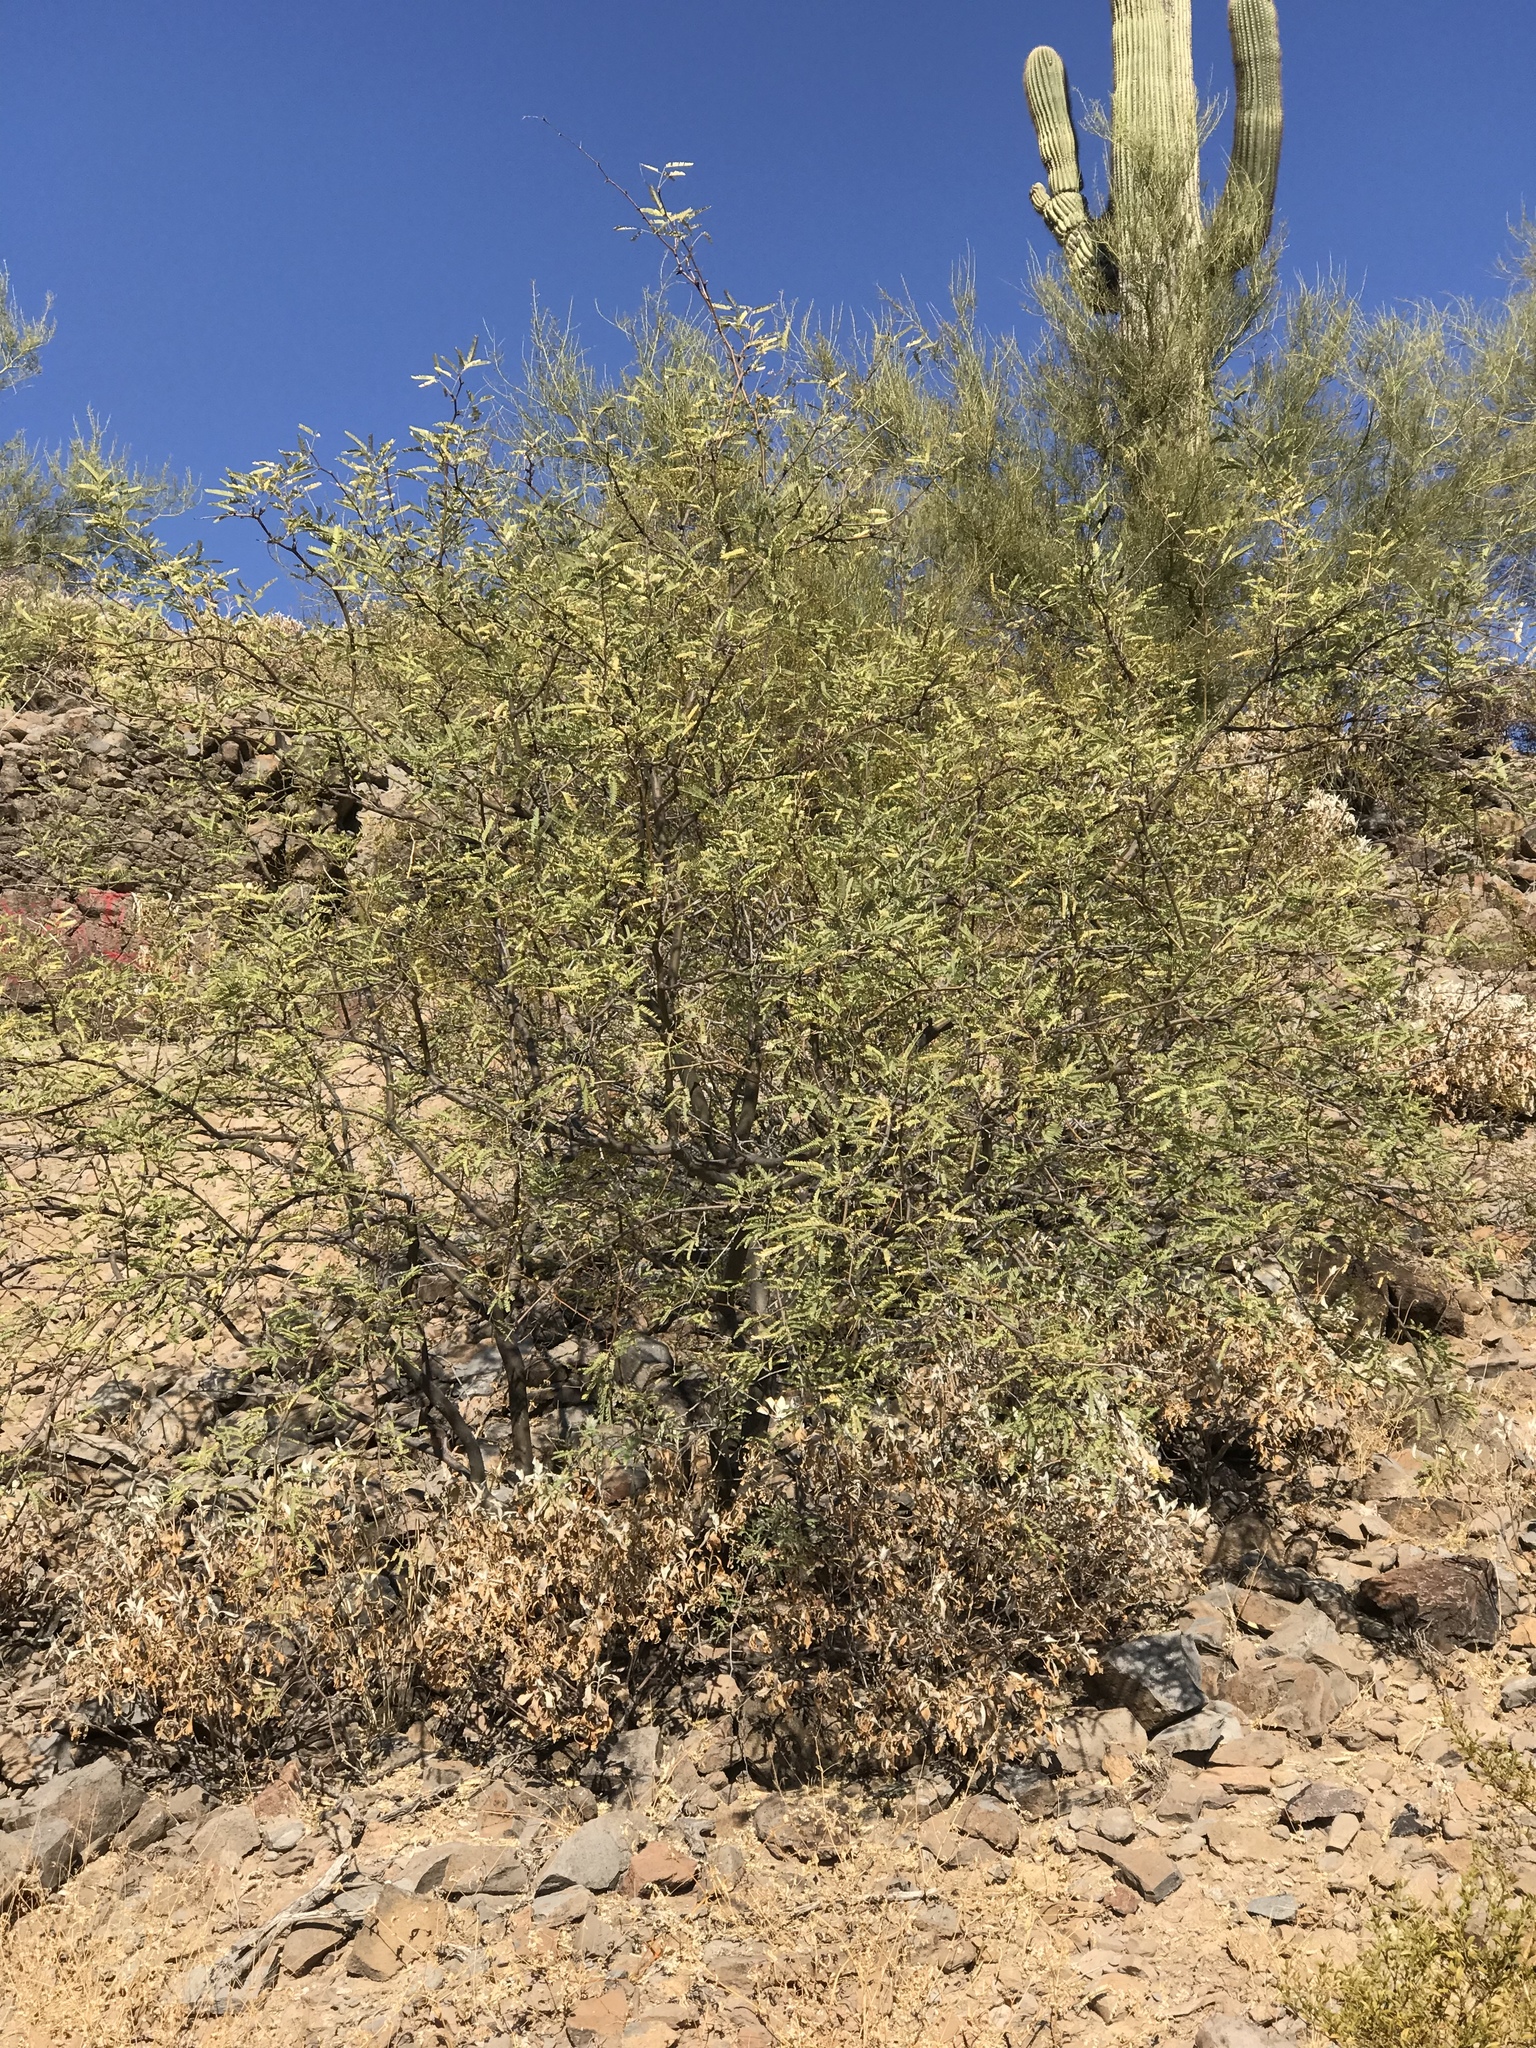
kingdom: Plantae
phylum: Tracheophyta
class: Magnoliopsida
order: Fabales
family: Fabaceae
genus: Prosopis
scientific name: Prosopis velutina
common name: Velvet mesquite
